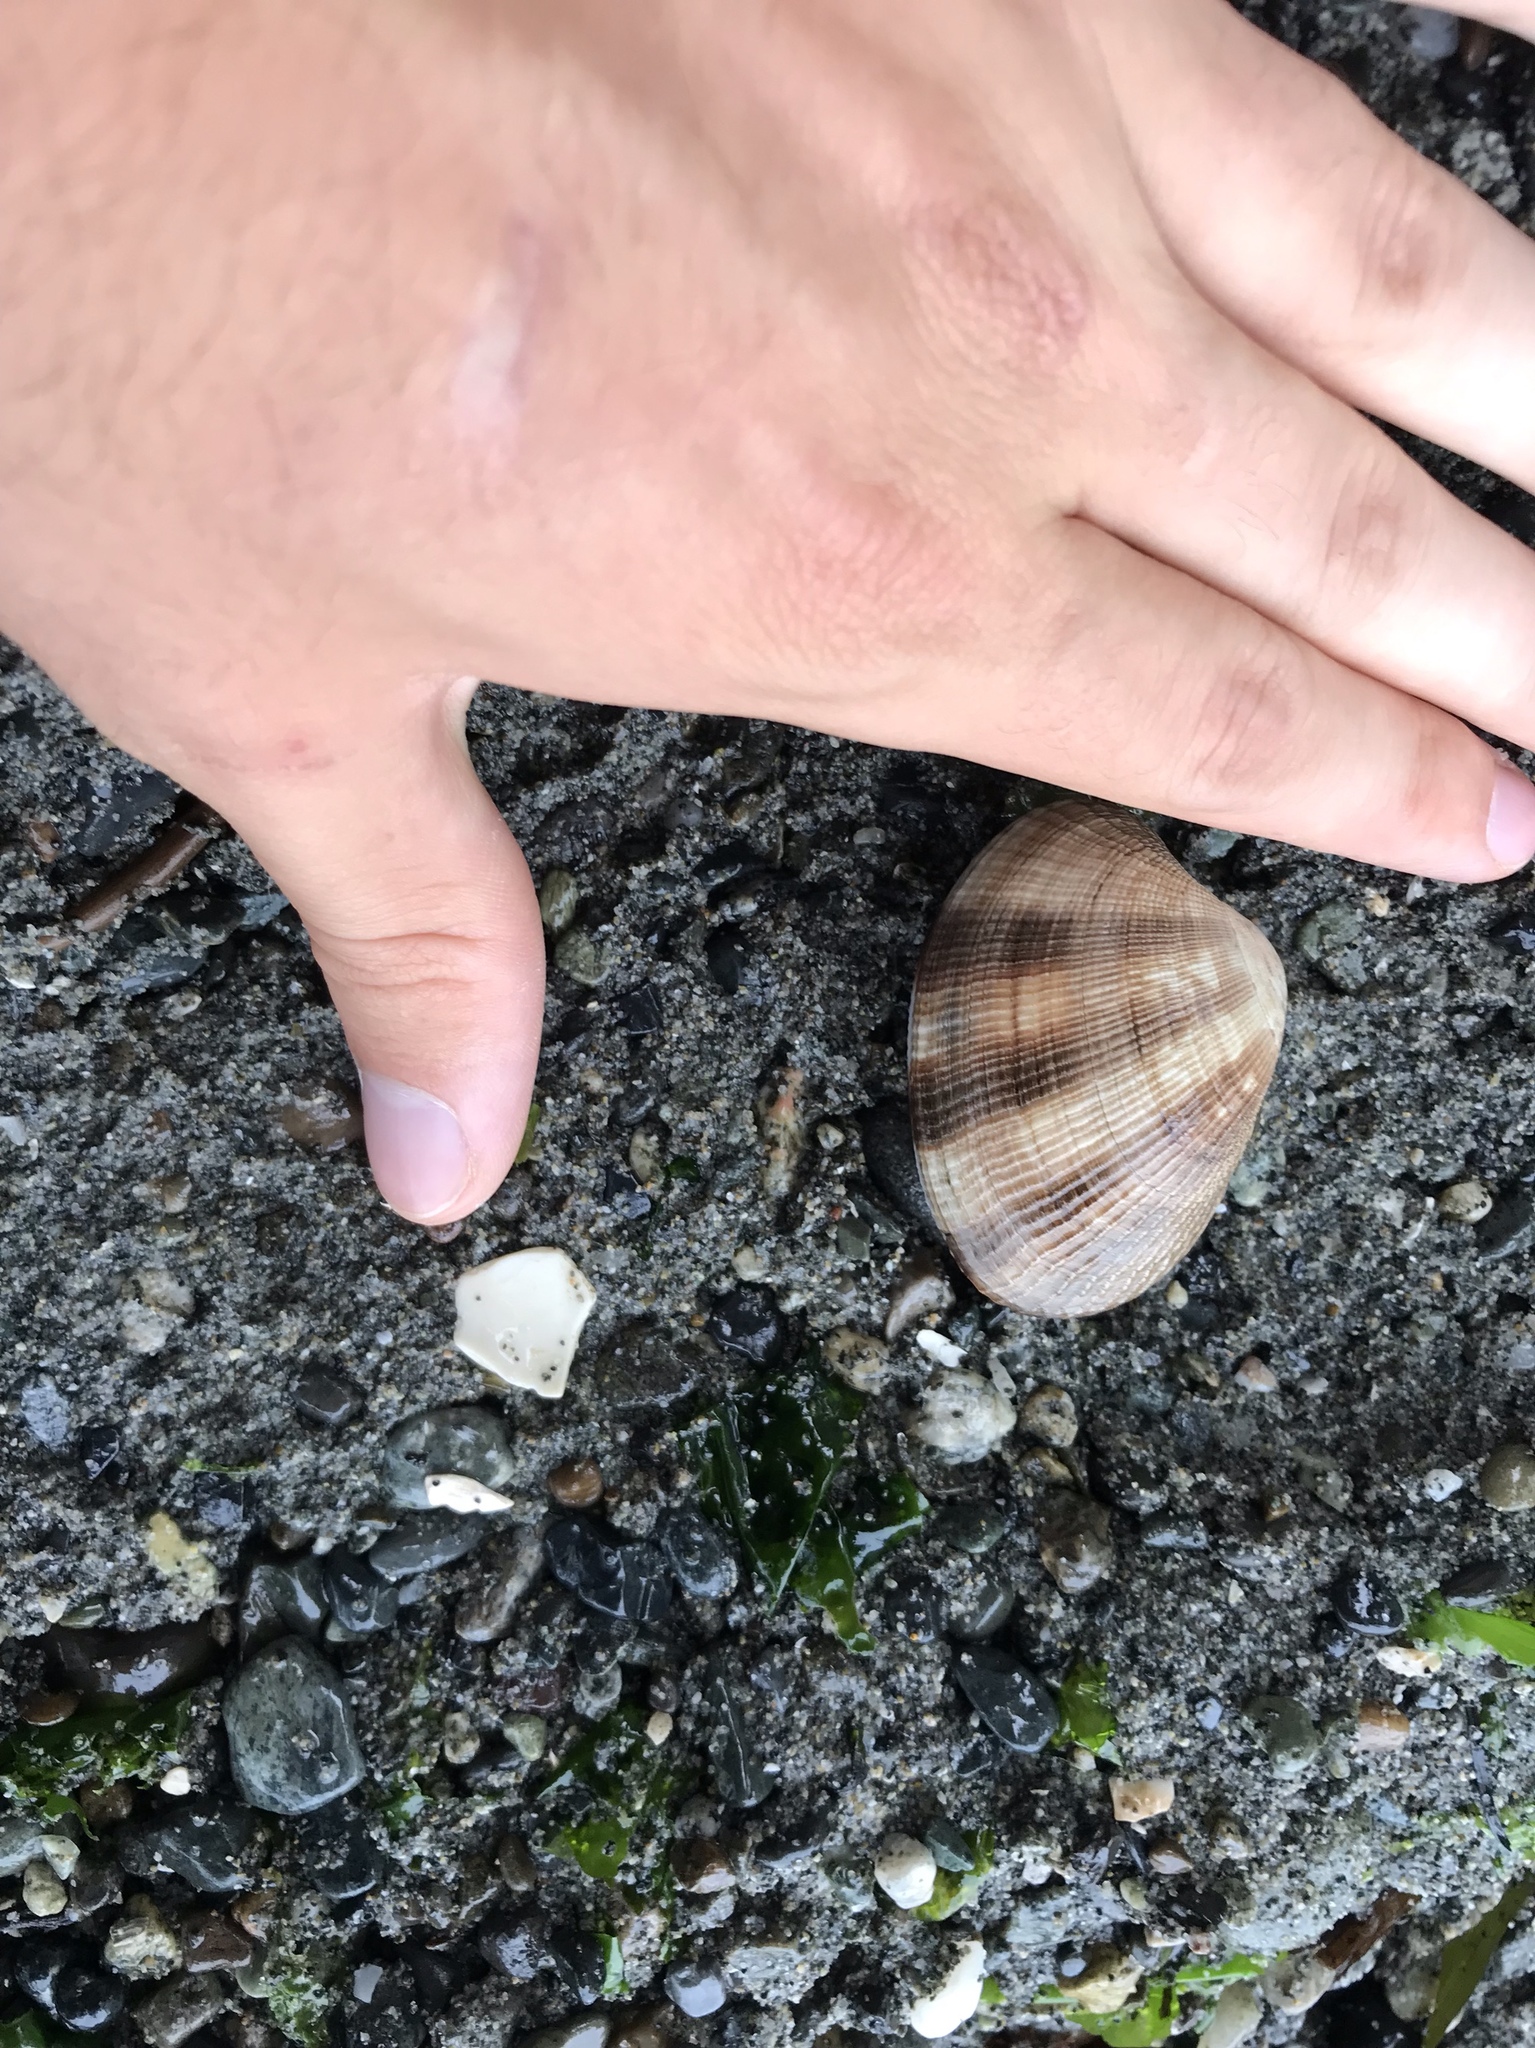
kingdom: Animalia
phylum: Mollusca
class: Bivalvia
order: Venerida
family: Veneridae
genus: Ruditapes
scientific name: Ruditapes philippinarum
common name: Manila clam
